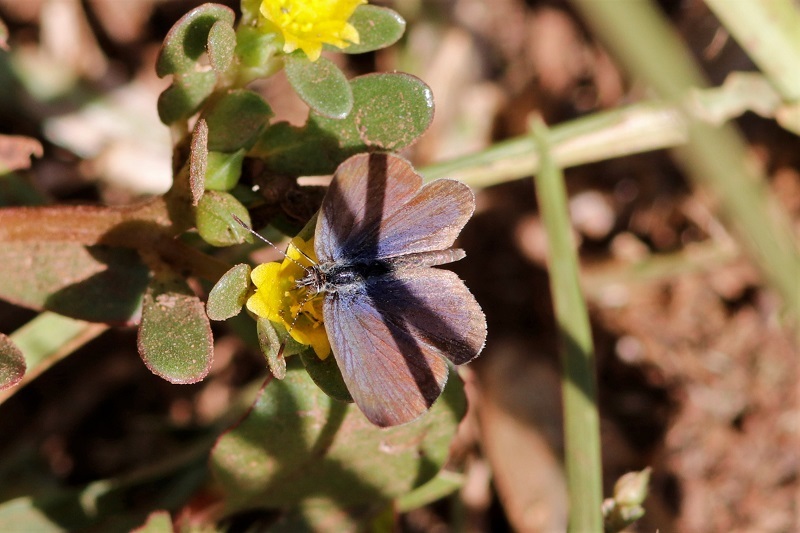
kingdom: Animalia
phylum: Arthropoda
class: Insecta
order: Lepidoptera
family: Lycaenidae
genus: Zizeeria
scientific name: Zizeeria knysna
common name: African grass blue
